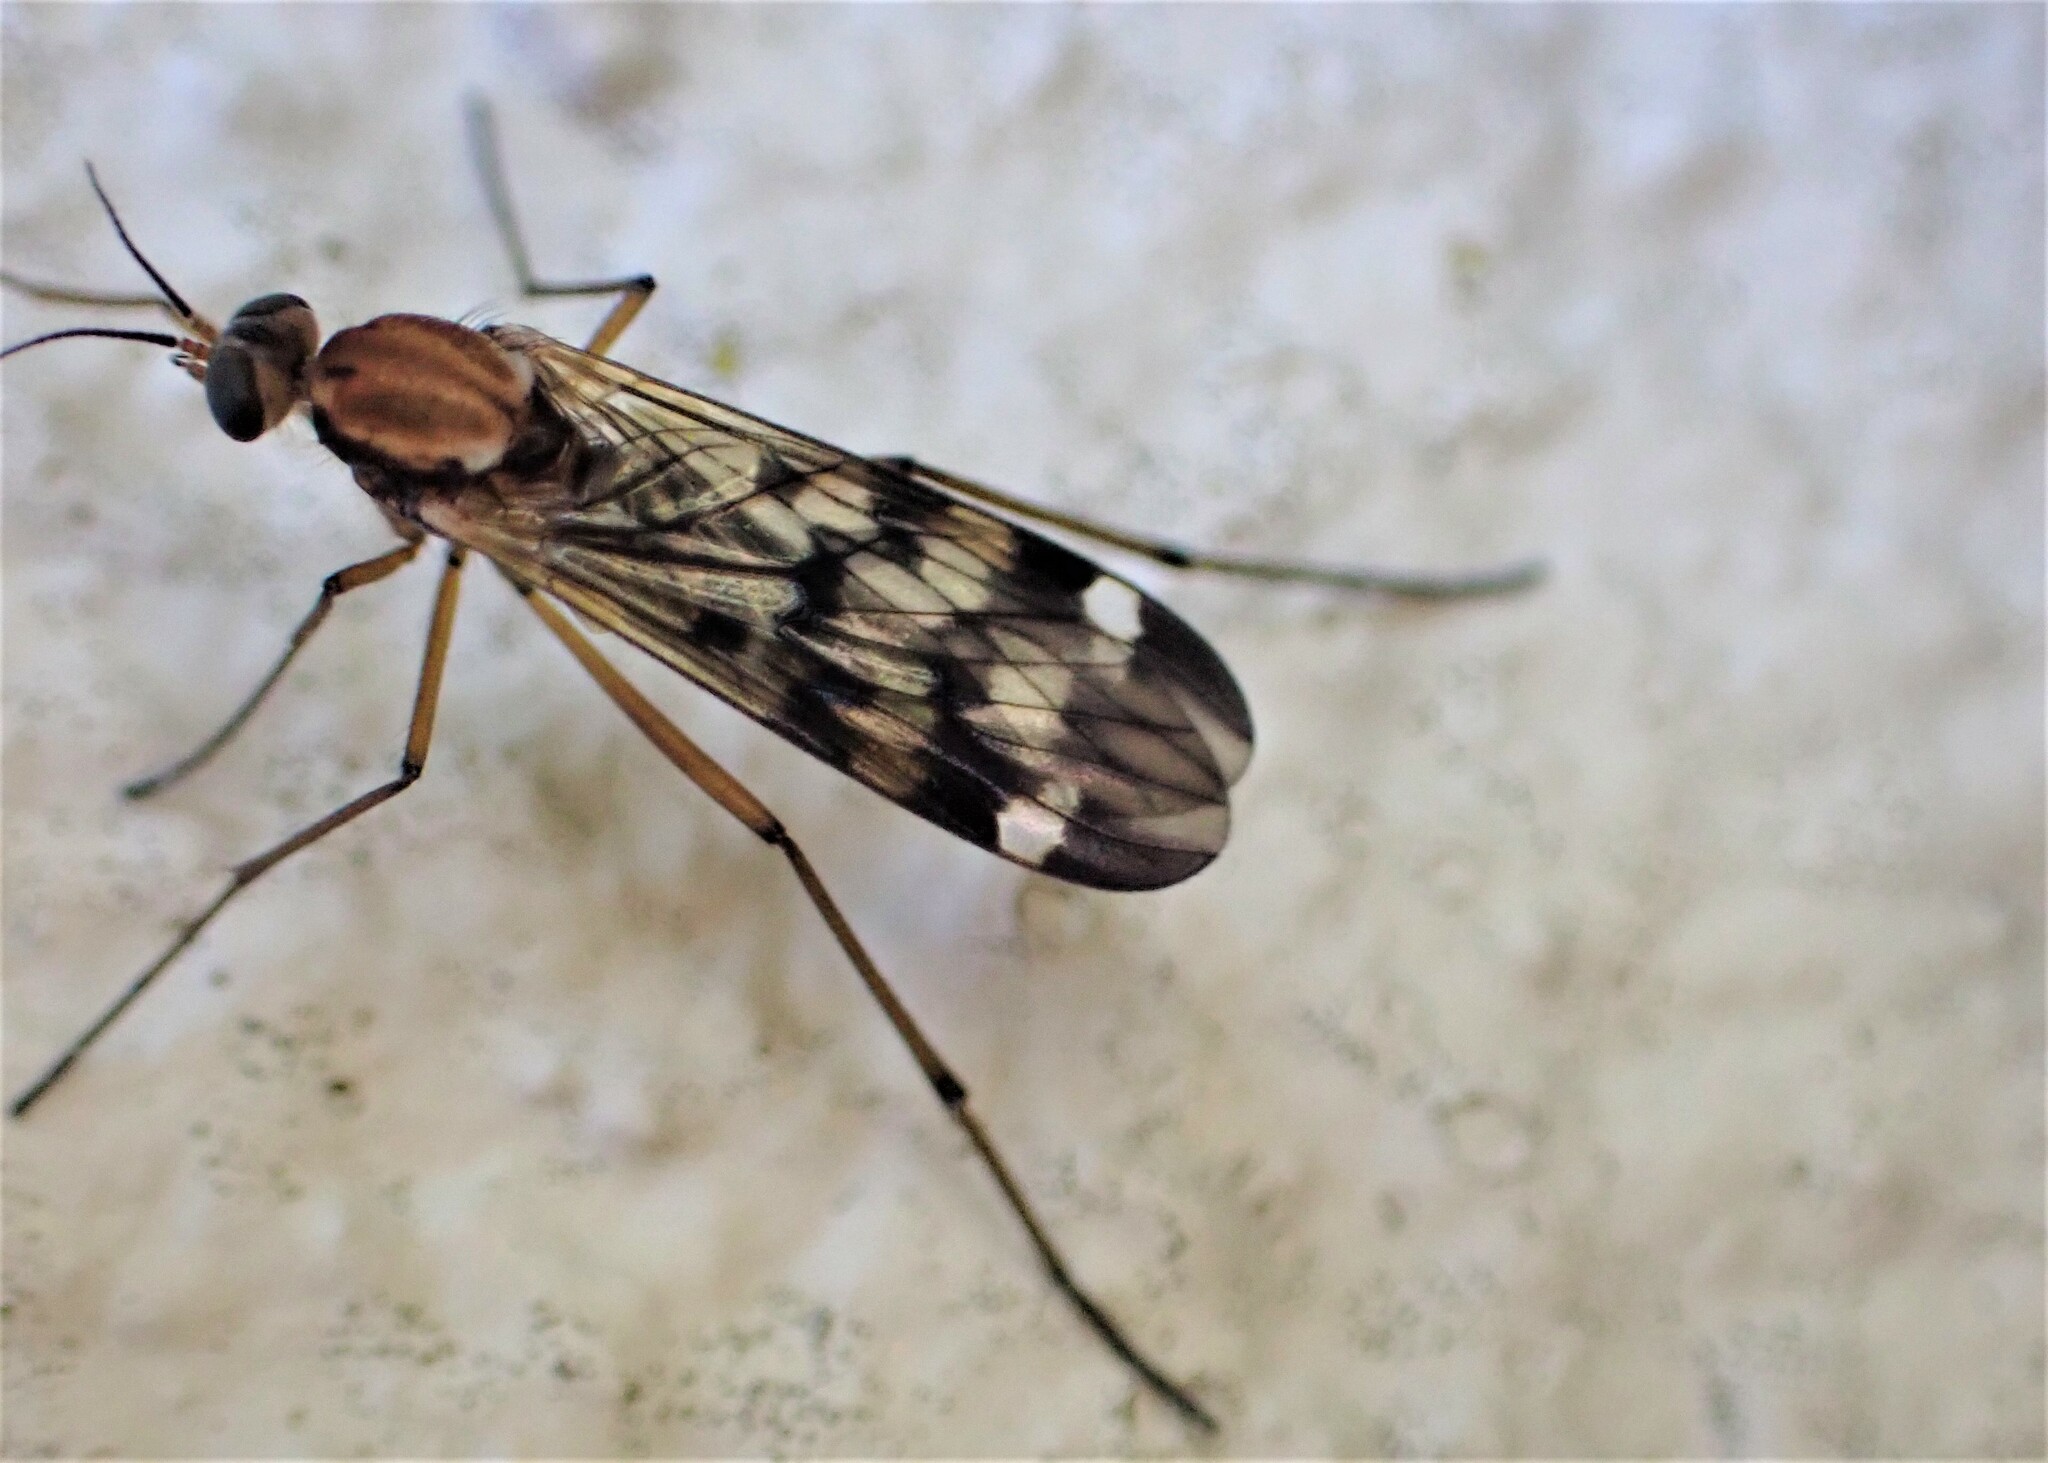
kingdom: Animalia
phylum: Arthropoda
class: Insecta
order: Diptera
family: Anisopodidae
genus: Sylvicola
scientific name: Sylvicola notatus
